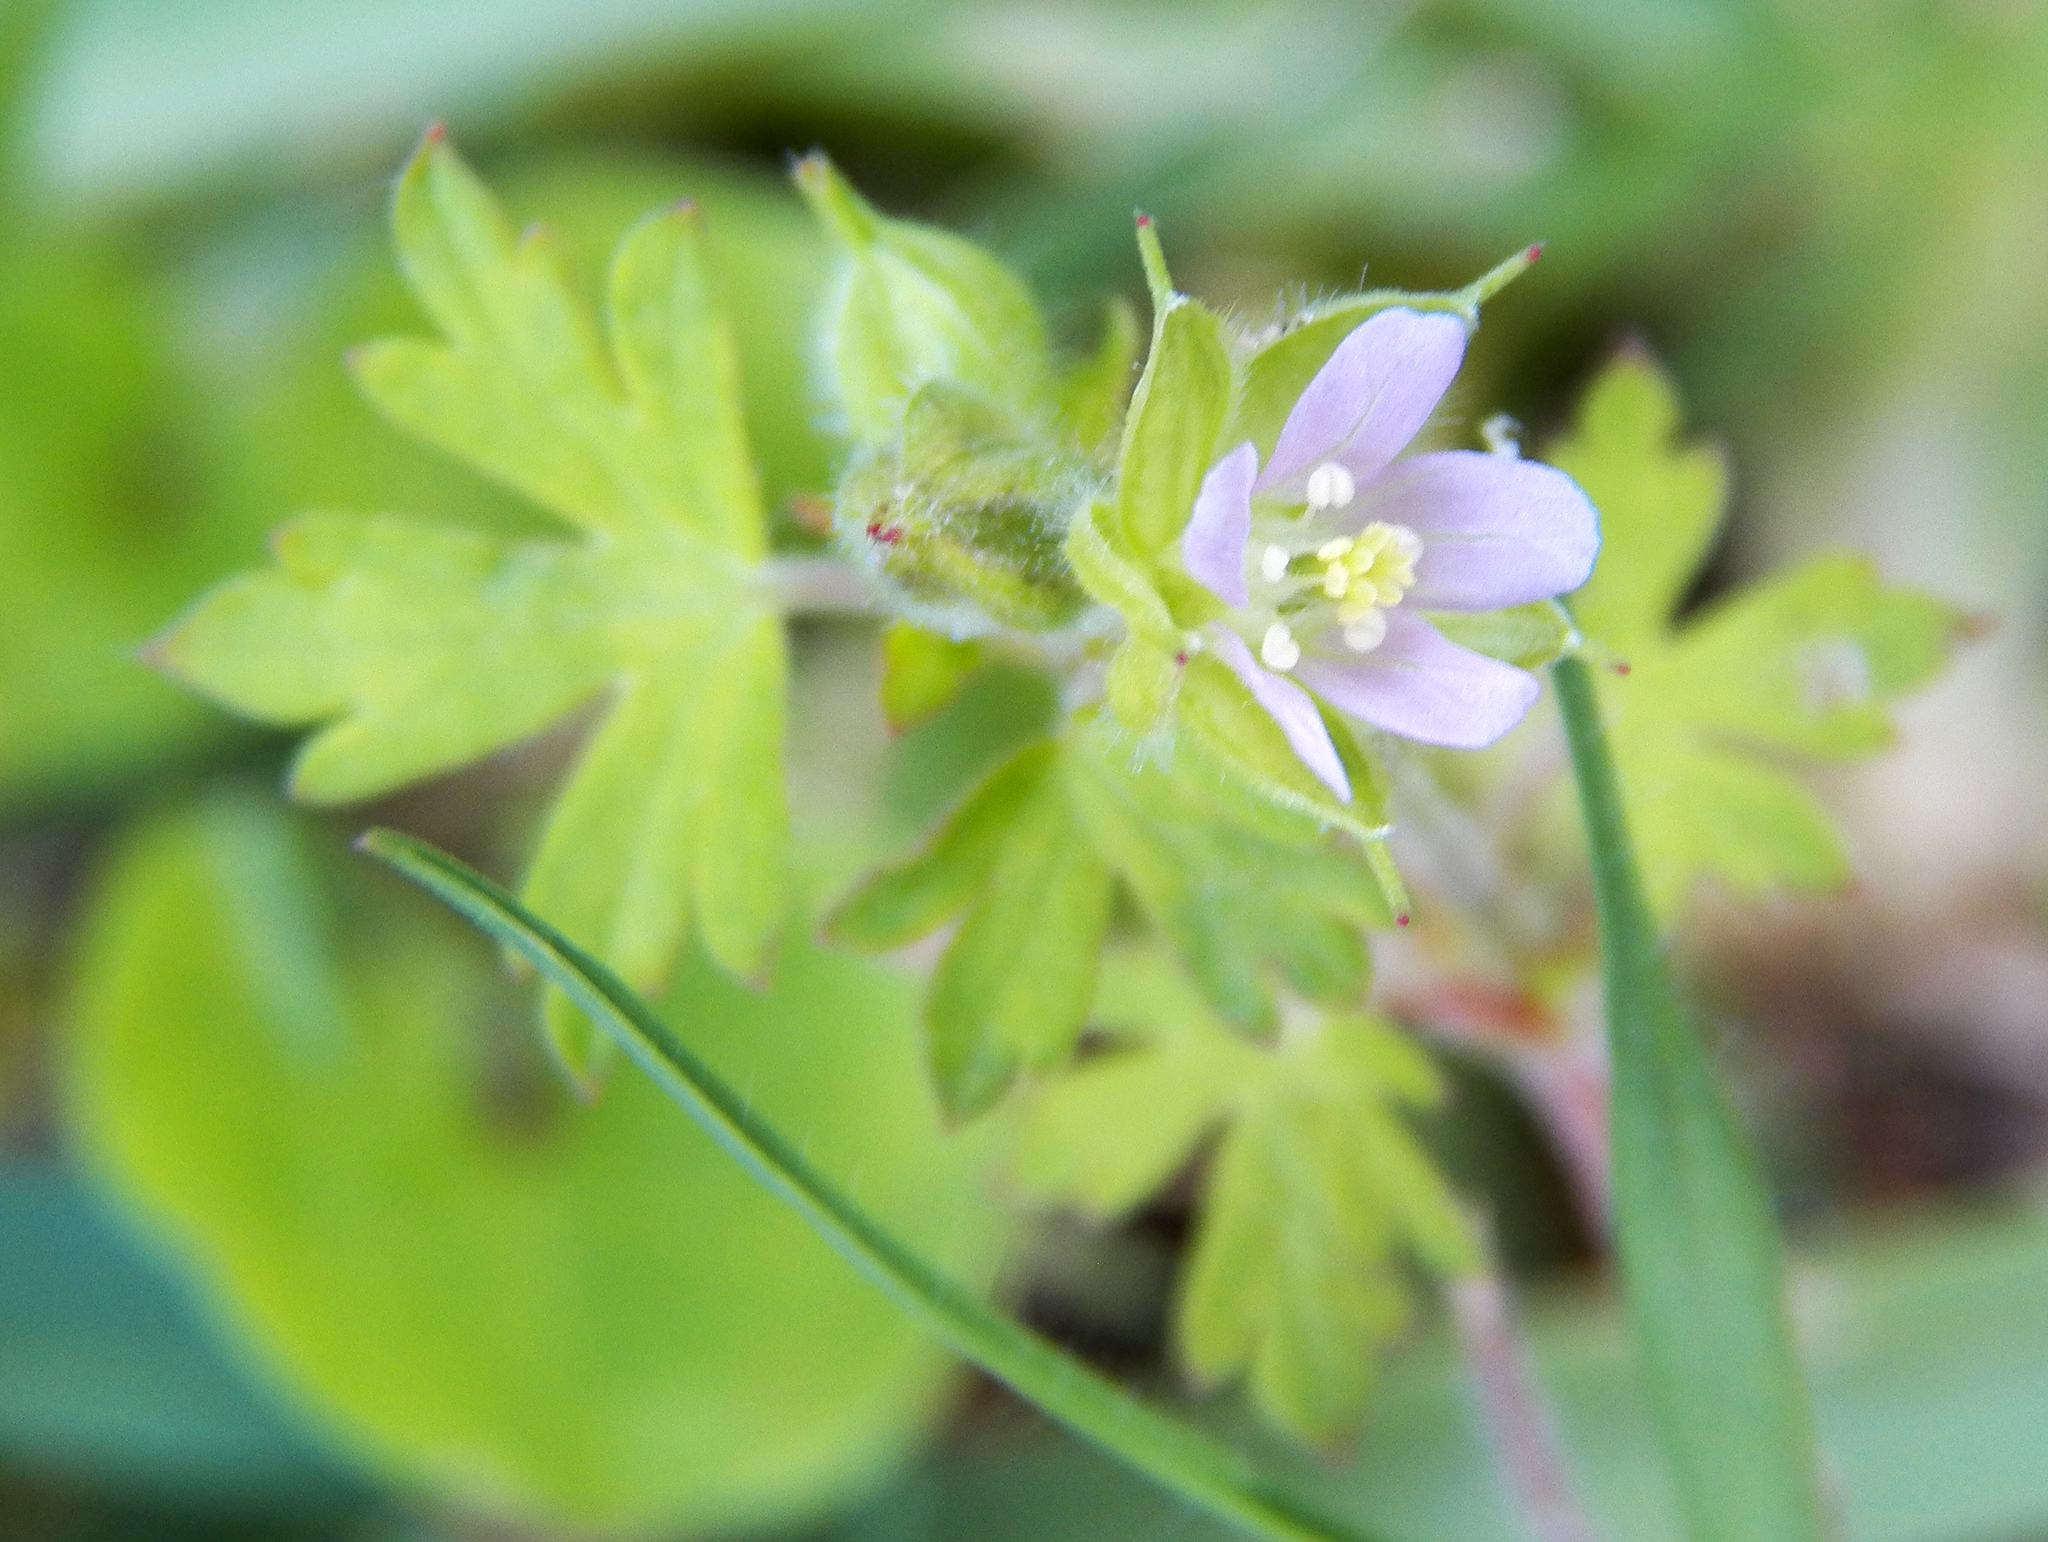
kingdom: Plantae
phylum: Tracheophyta
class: Magnoliopsida
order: Geraniales
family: Geraniaceae
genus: Geranium
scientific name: Geranium carolinianum
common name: Carolina crane's-bill
